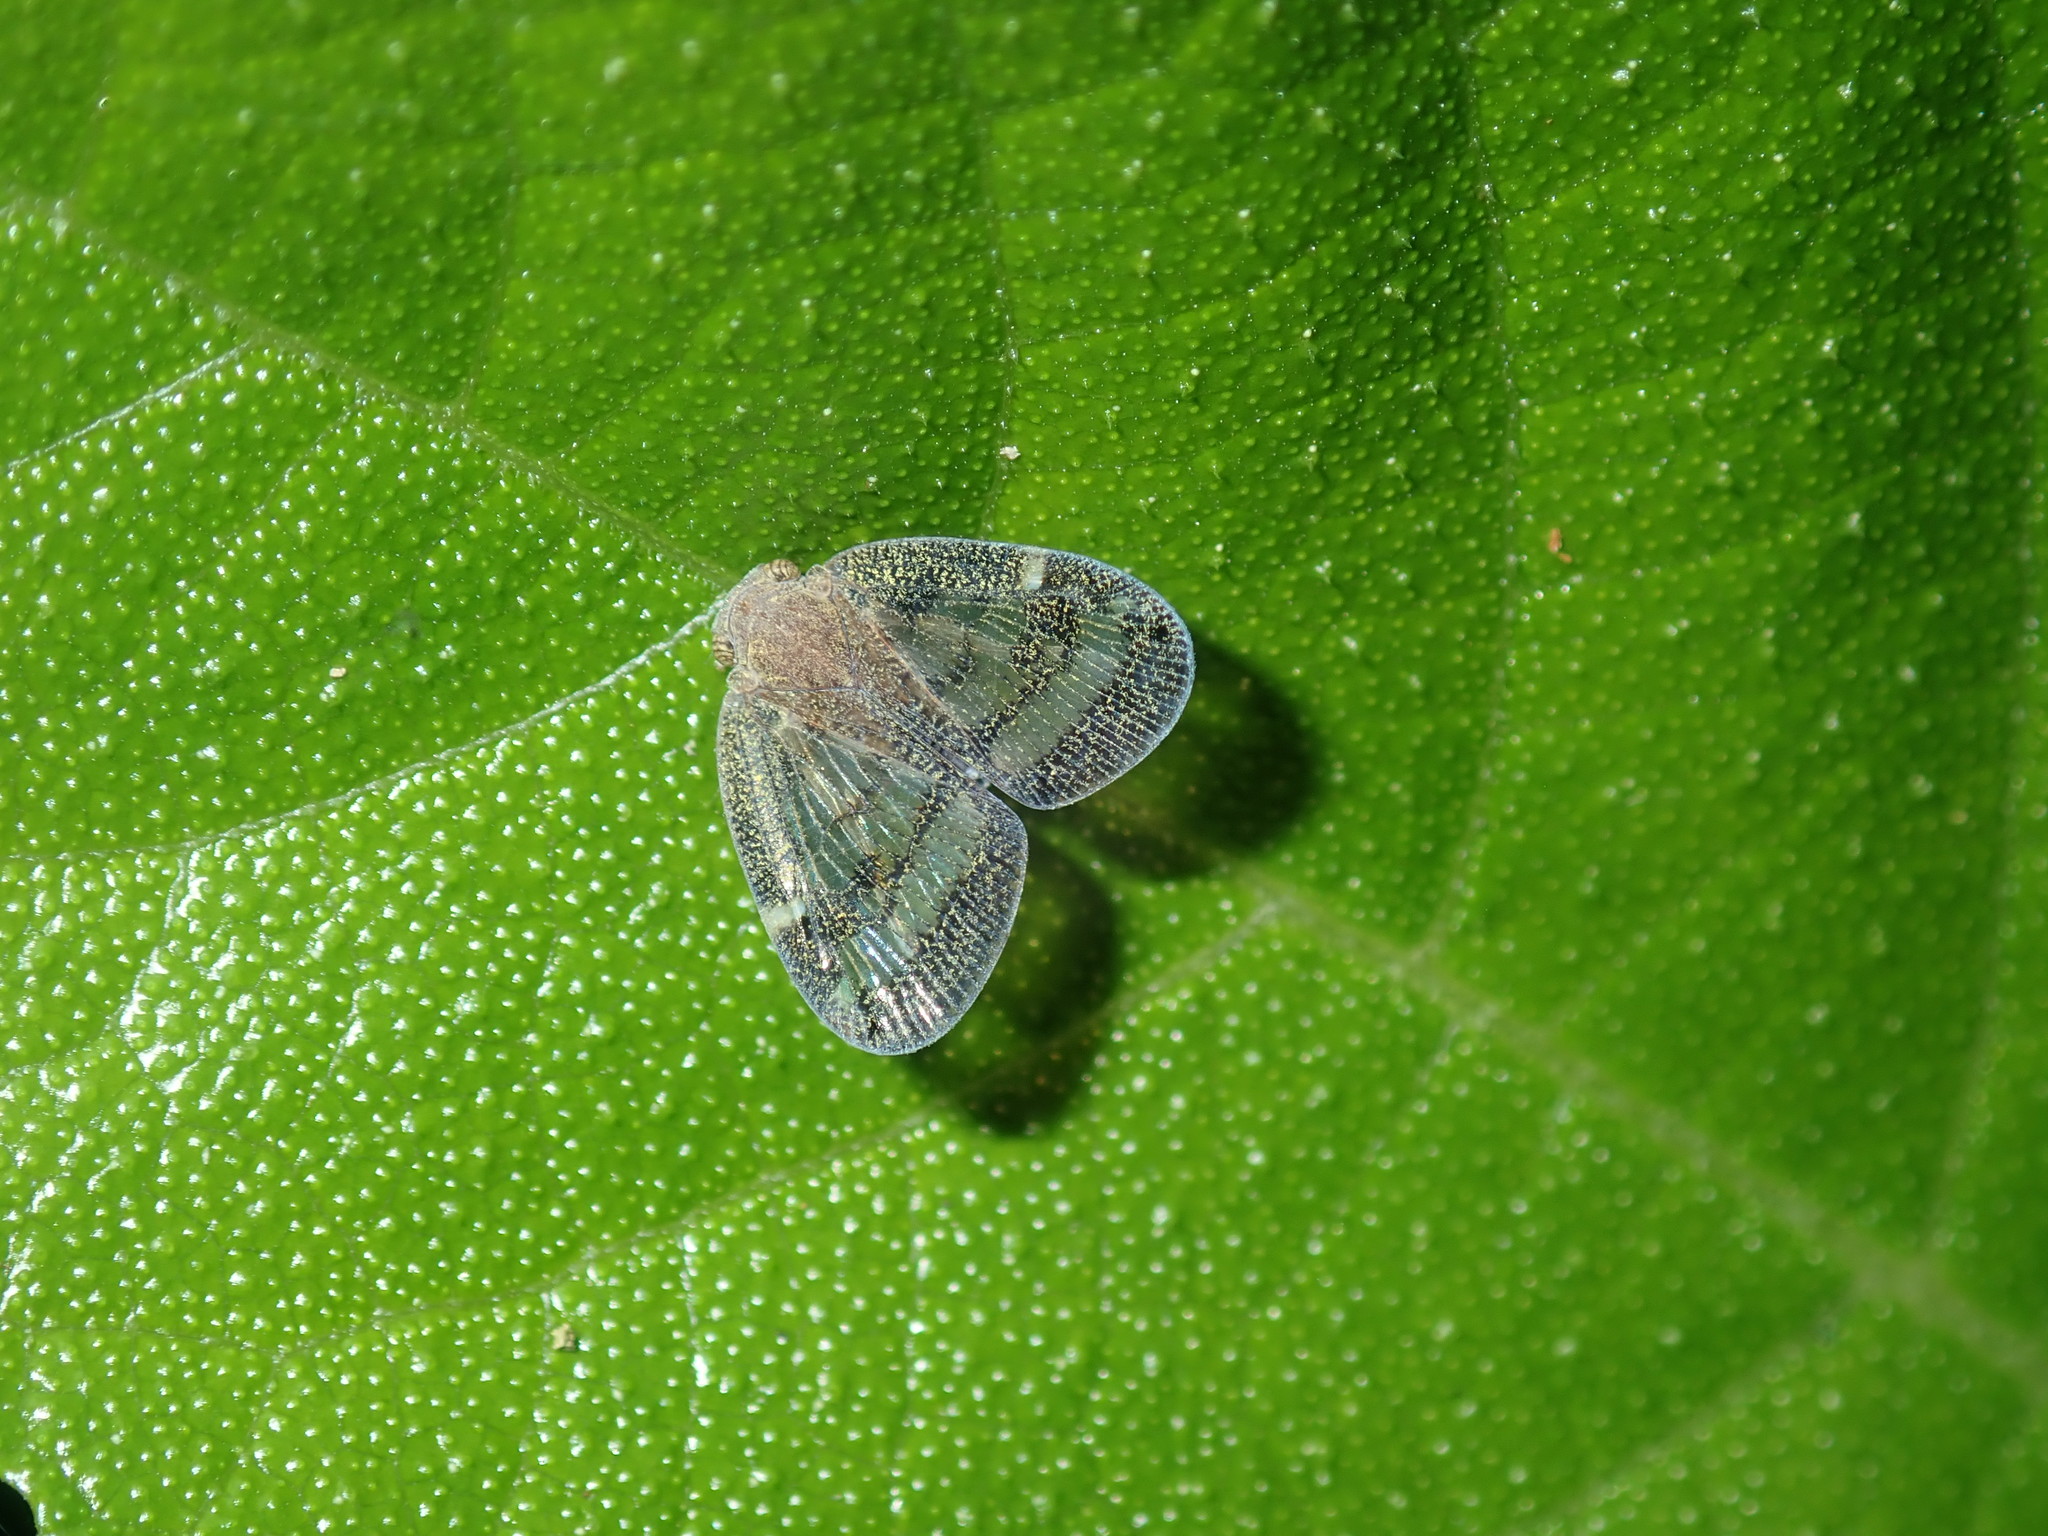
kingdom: Animalia
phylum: Arthropoda
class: Insecta
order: Hemiptera
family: Ricaniidae
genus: Scolypopa
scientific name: Scolypopa australis
